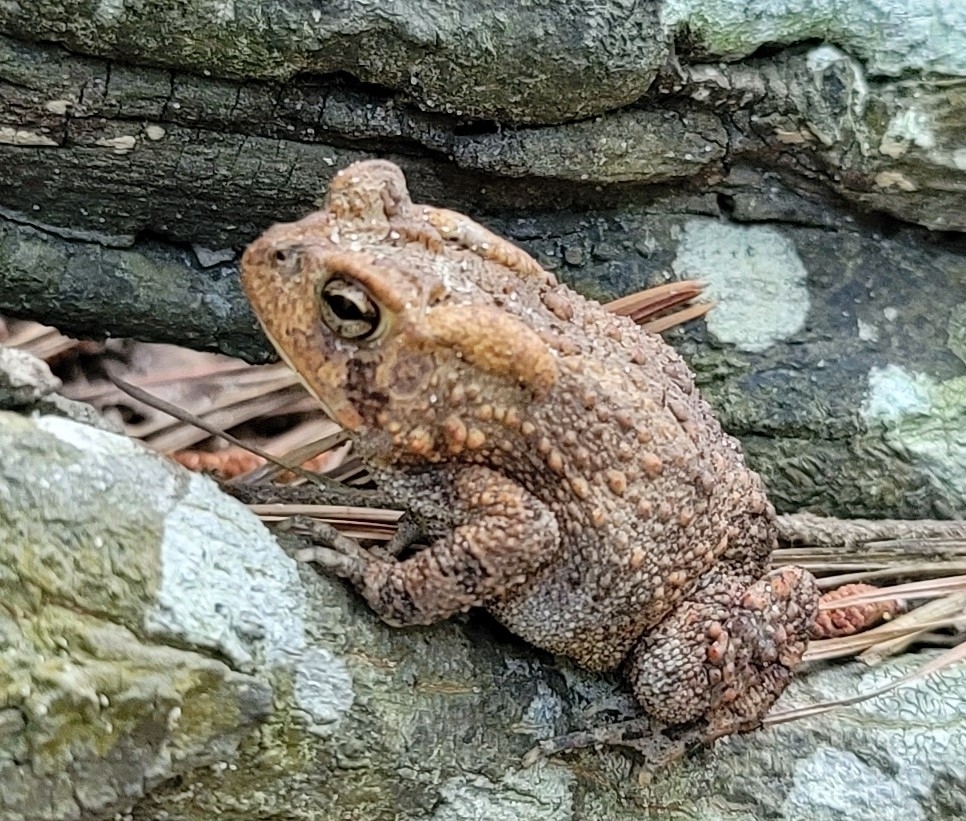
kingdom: Animalia
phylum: Chordata
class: Amphibia
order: Anura
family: Bufonidae
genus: Anaxyrus
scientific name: Anaxyrus terrestris
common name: Southern toad
